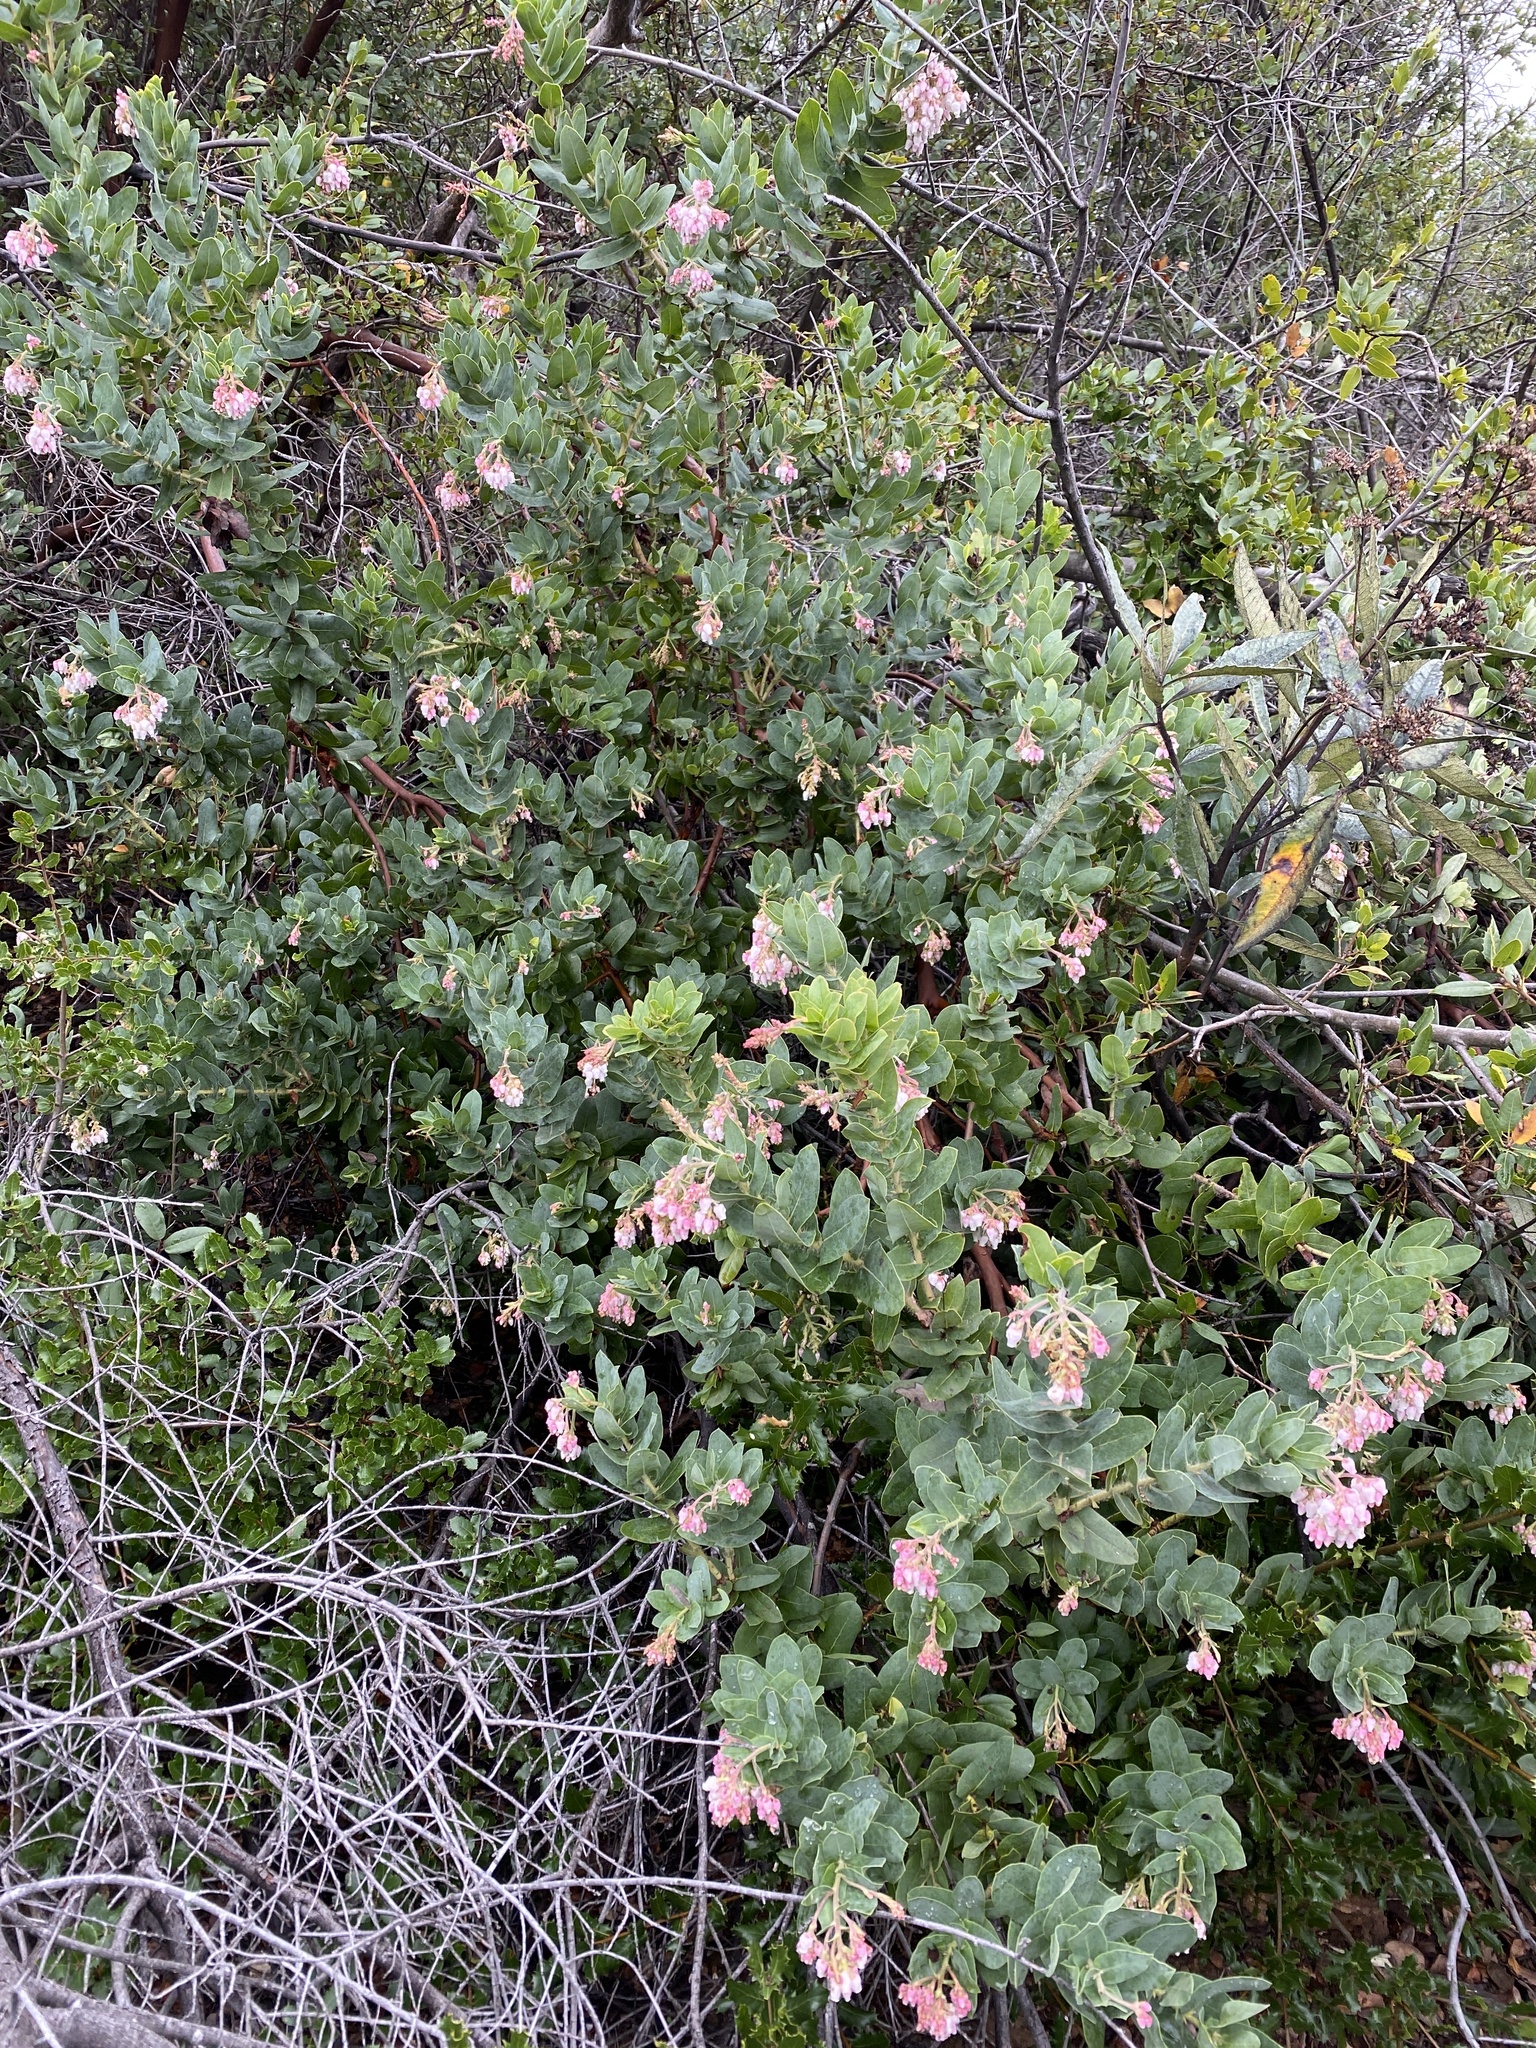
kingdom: Plantae
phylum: Tracheophyta
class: Magnoliopsida
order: Ericales
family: Ericaceae
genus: Arctostaphylos
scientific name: Arctostaphylos andersonii
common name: Santa cruz manzanita
